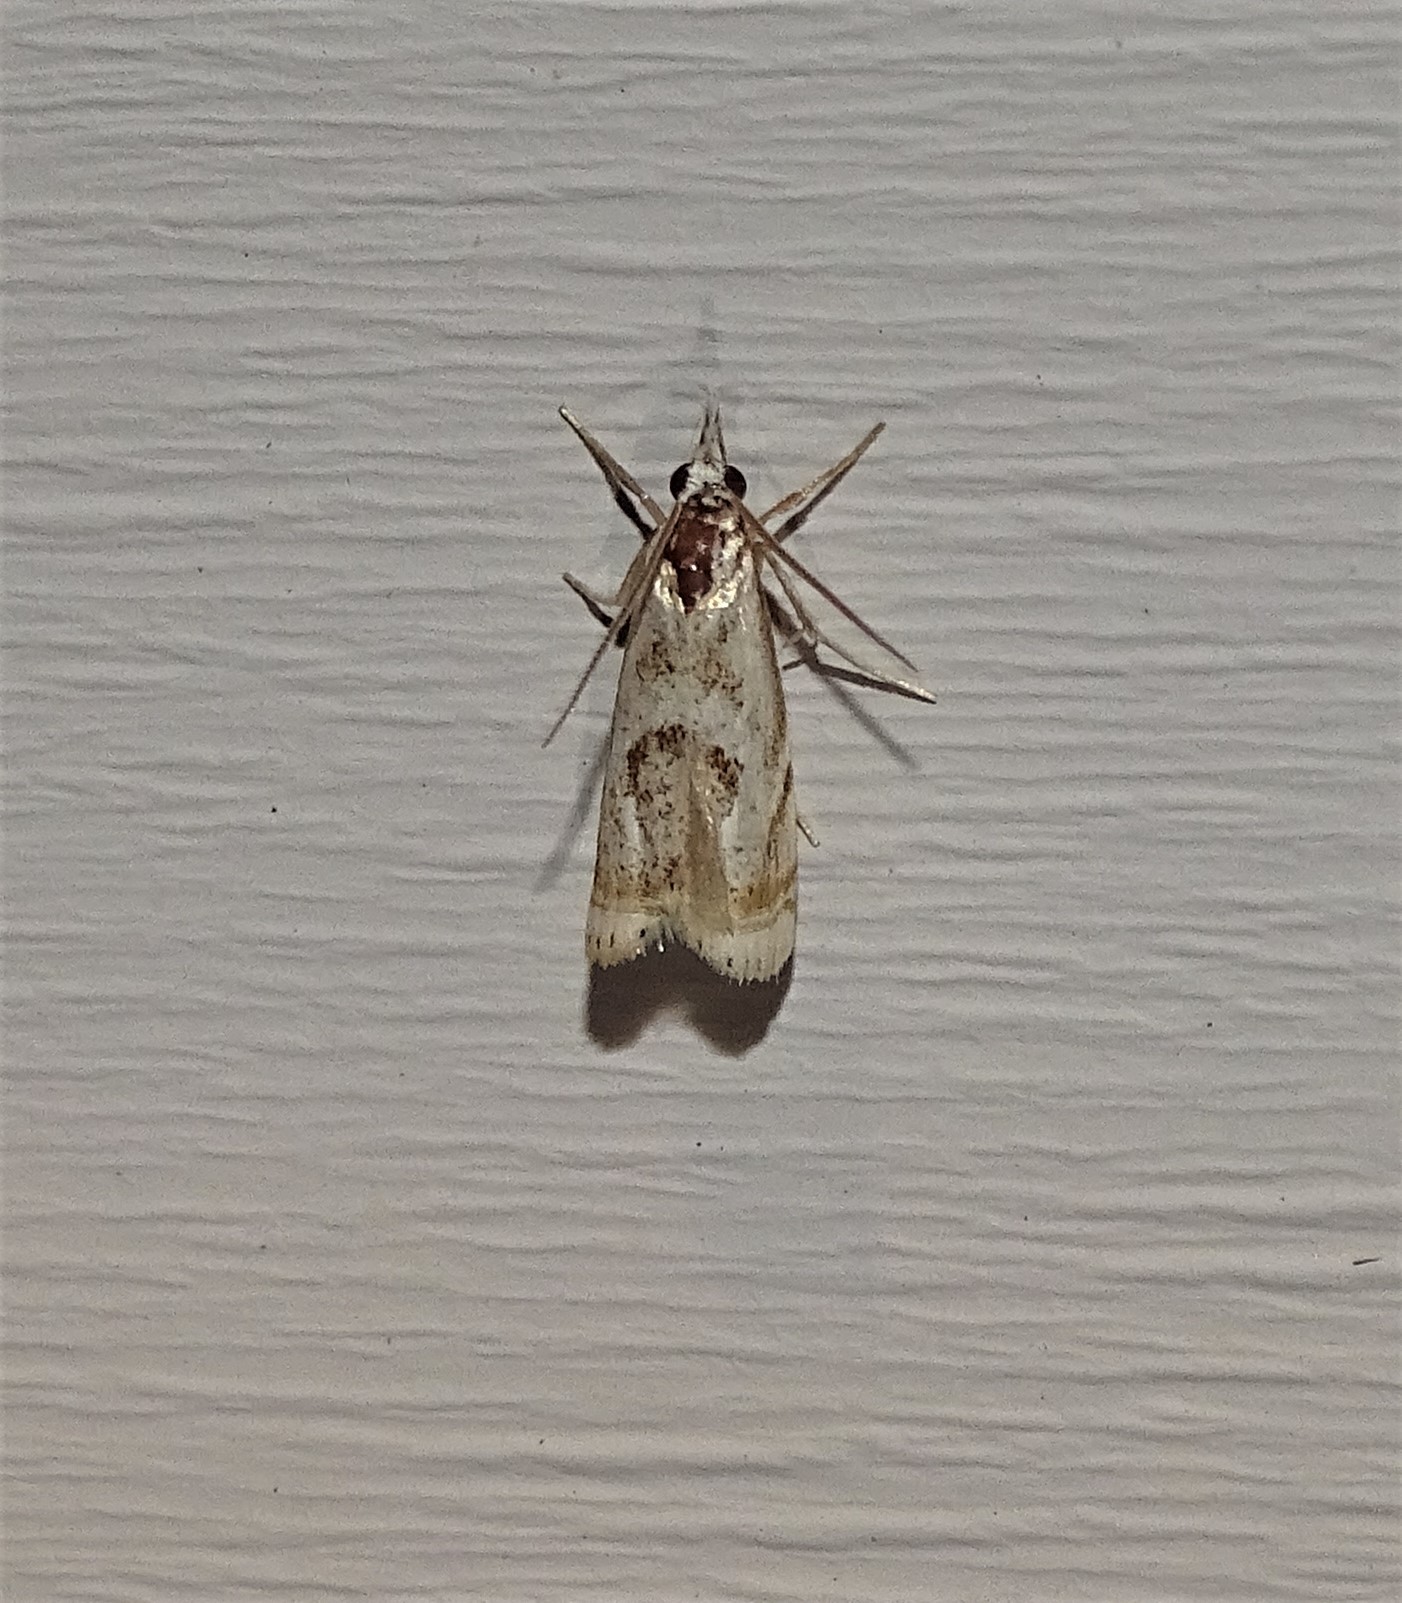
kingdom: Animalia
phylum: Arthropoda
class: Insecta
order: Lepidoptera
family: Crambidae
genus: Microcrambus
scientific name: Microcrambus elegans
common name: Elegant grass-veneer
